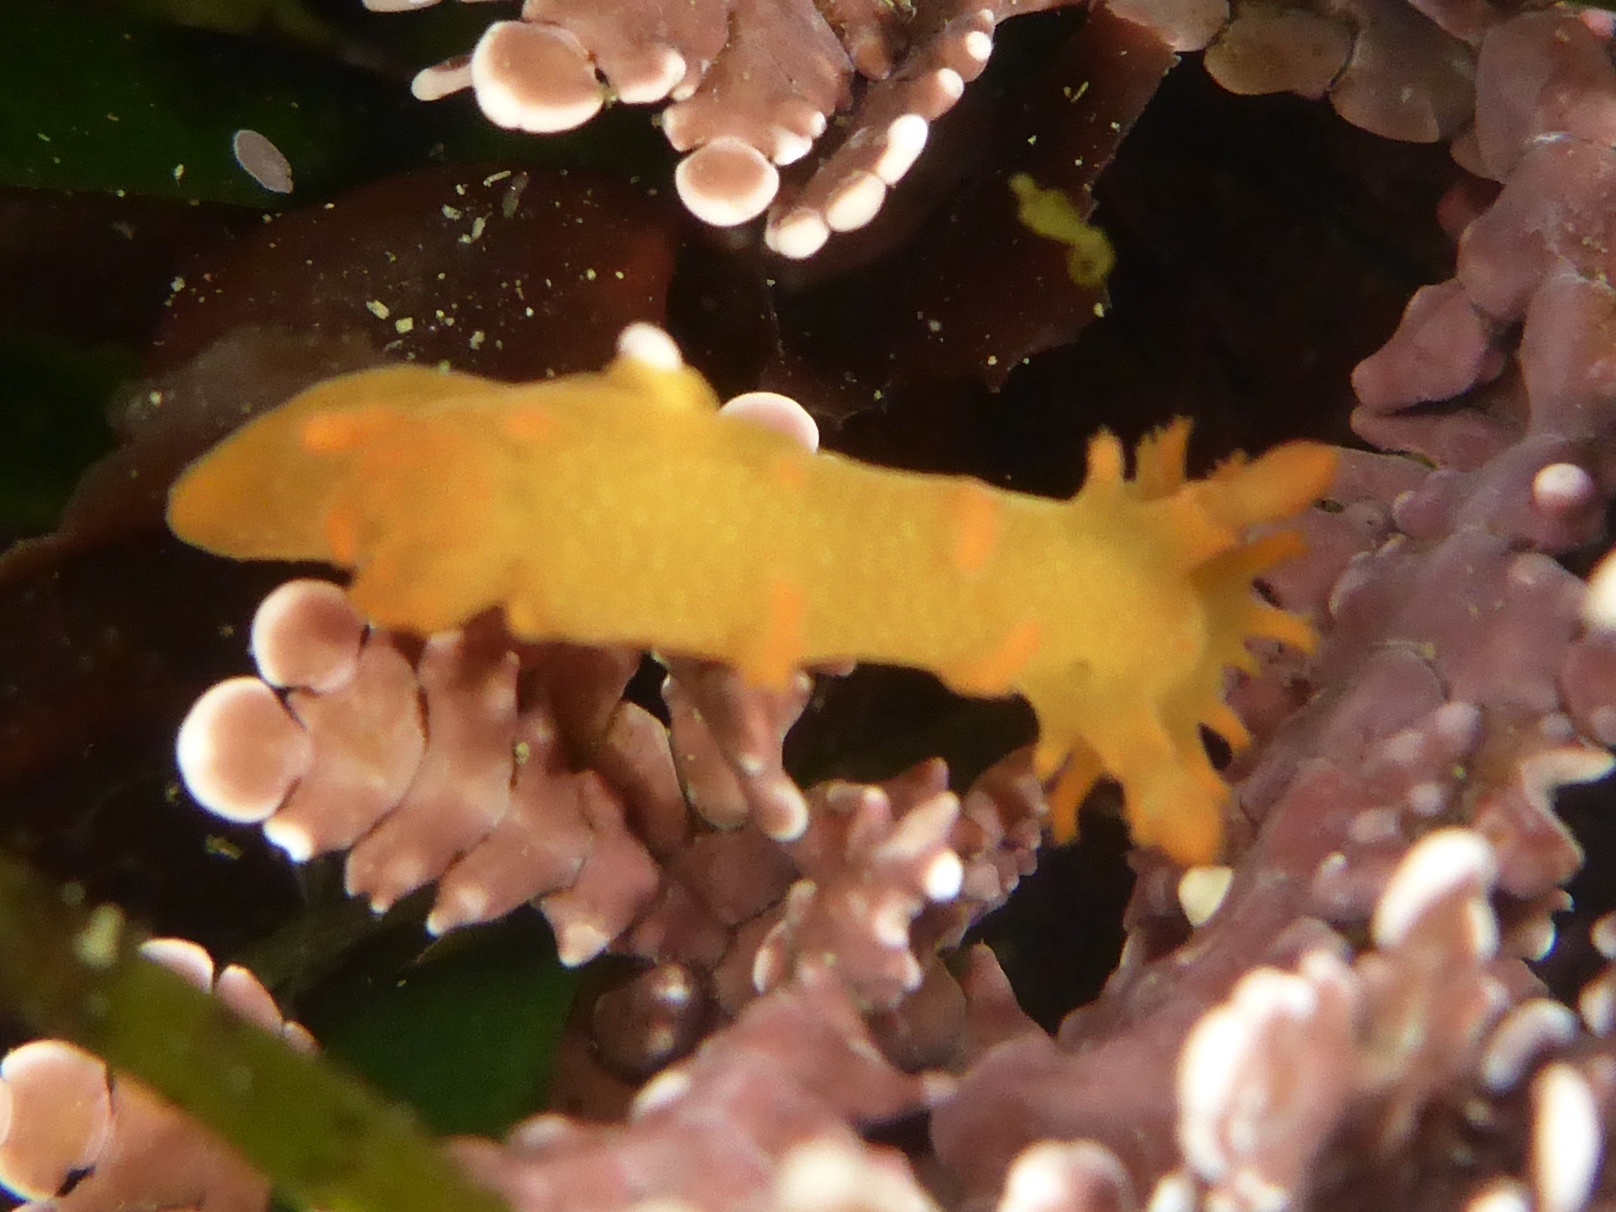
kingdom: Animalia
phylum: Mollusca
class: Gastropoda
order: Nudibranchia
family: Polyceridae
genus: Triopha
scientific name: Triopha maculata
